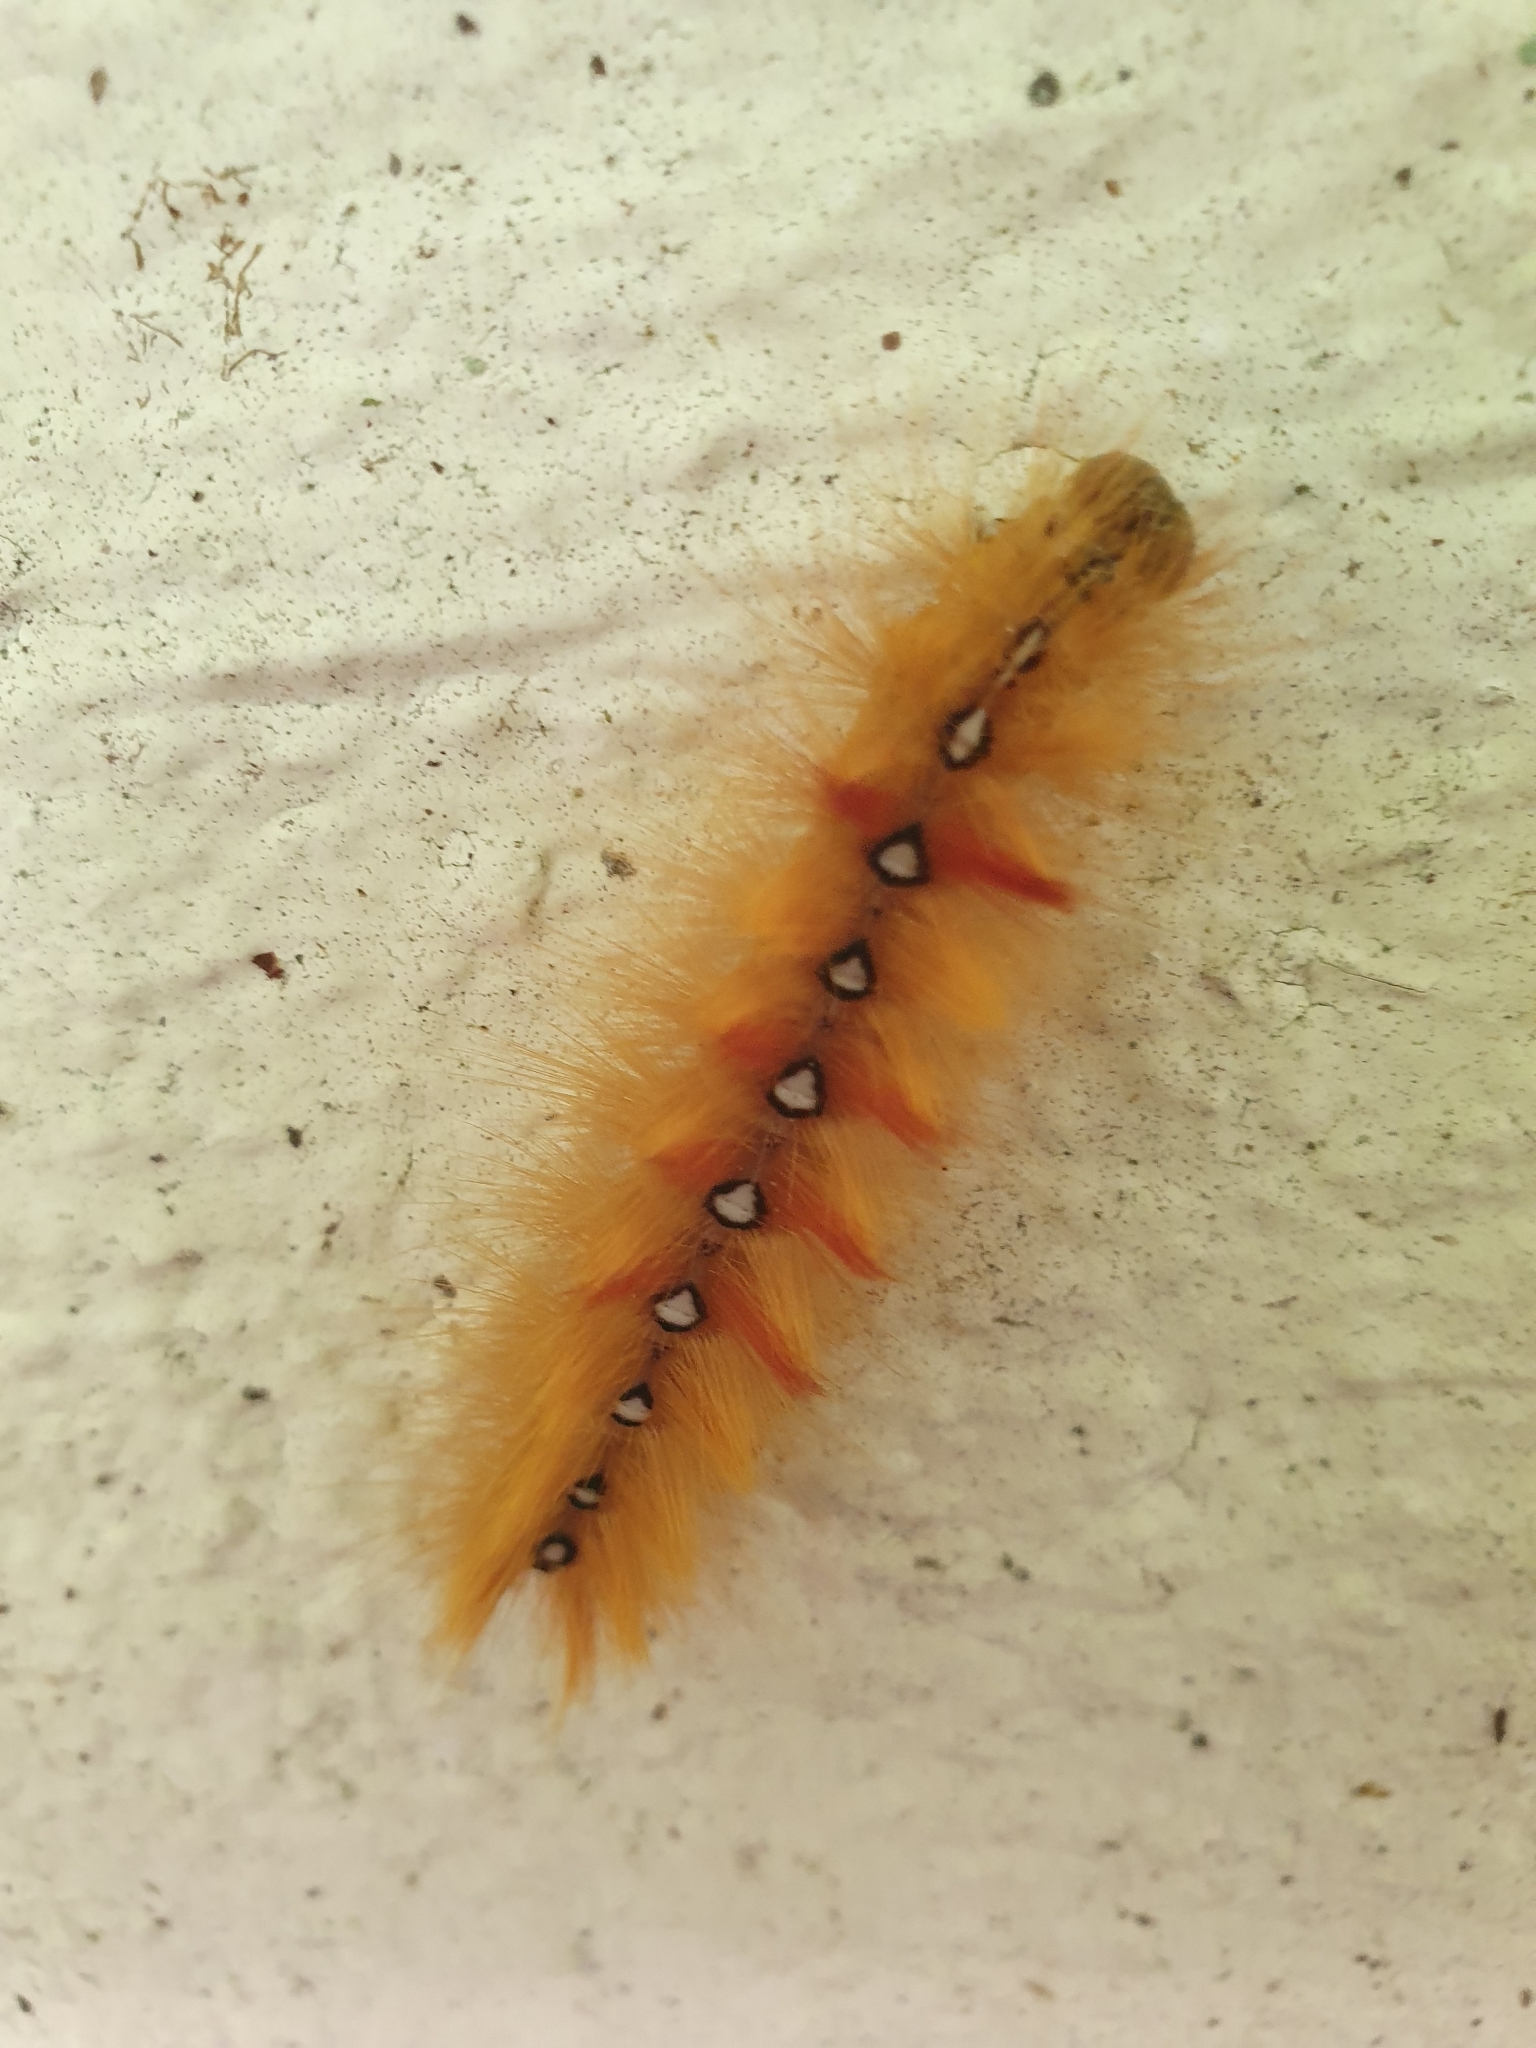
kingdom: Animalia
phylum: Arthropoda
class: Insecta
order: Lepidoptera
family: Noctuidae
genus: Acronicta
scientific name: Acronicta aceris
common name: Sycamore
